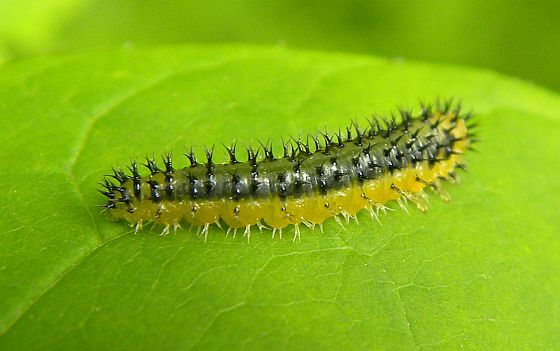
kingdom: Animalia
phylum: Arthropoda
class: Insecta
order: Hymenoptera
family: Tenthredinidae
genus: Eupareophora
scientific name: Eupareophora parca
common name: Sawfly
